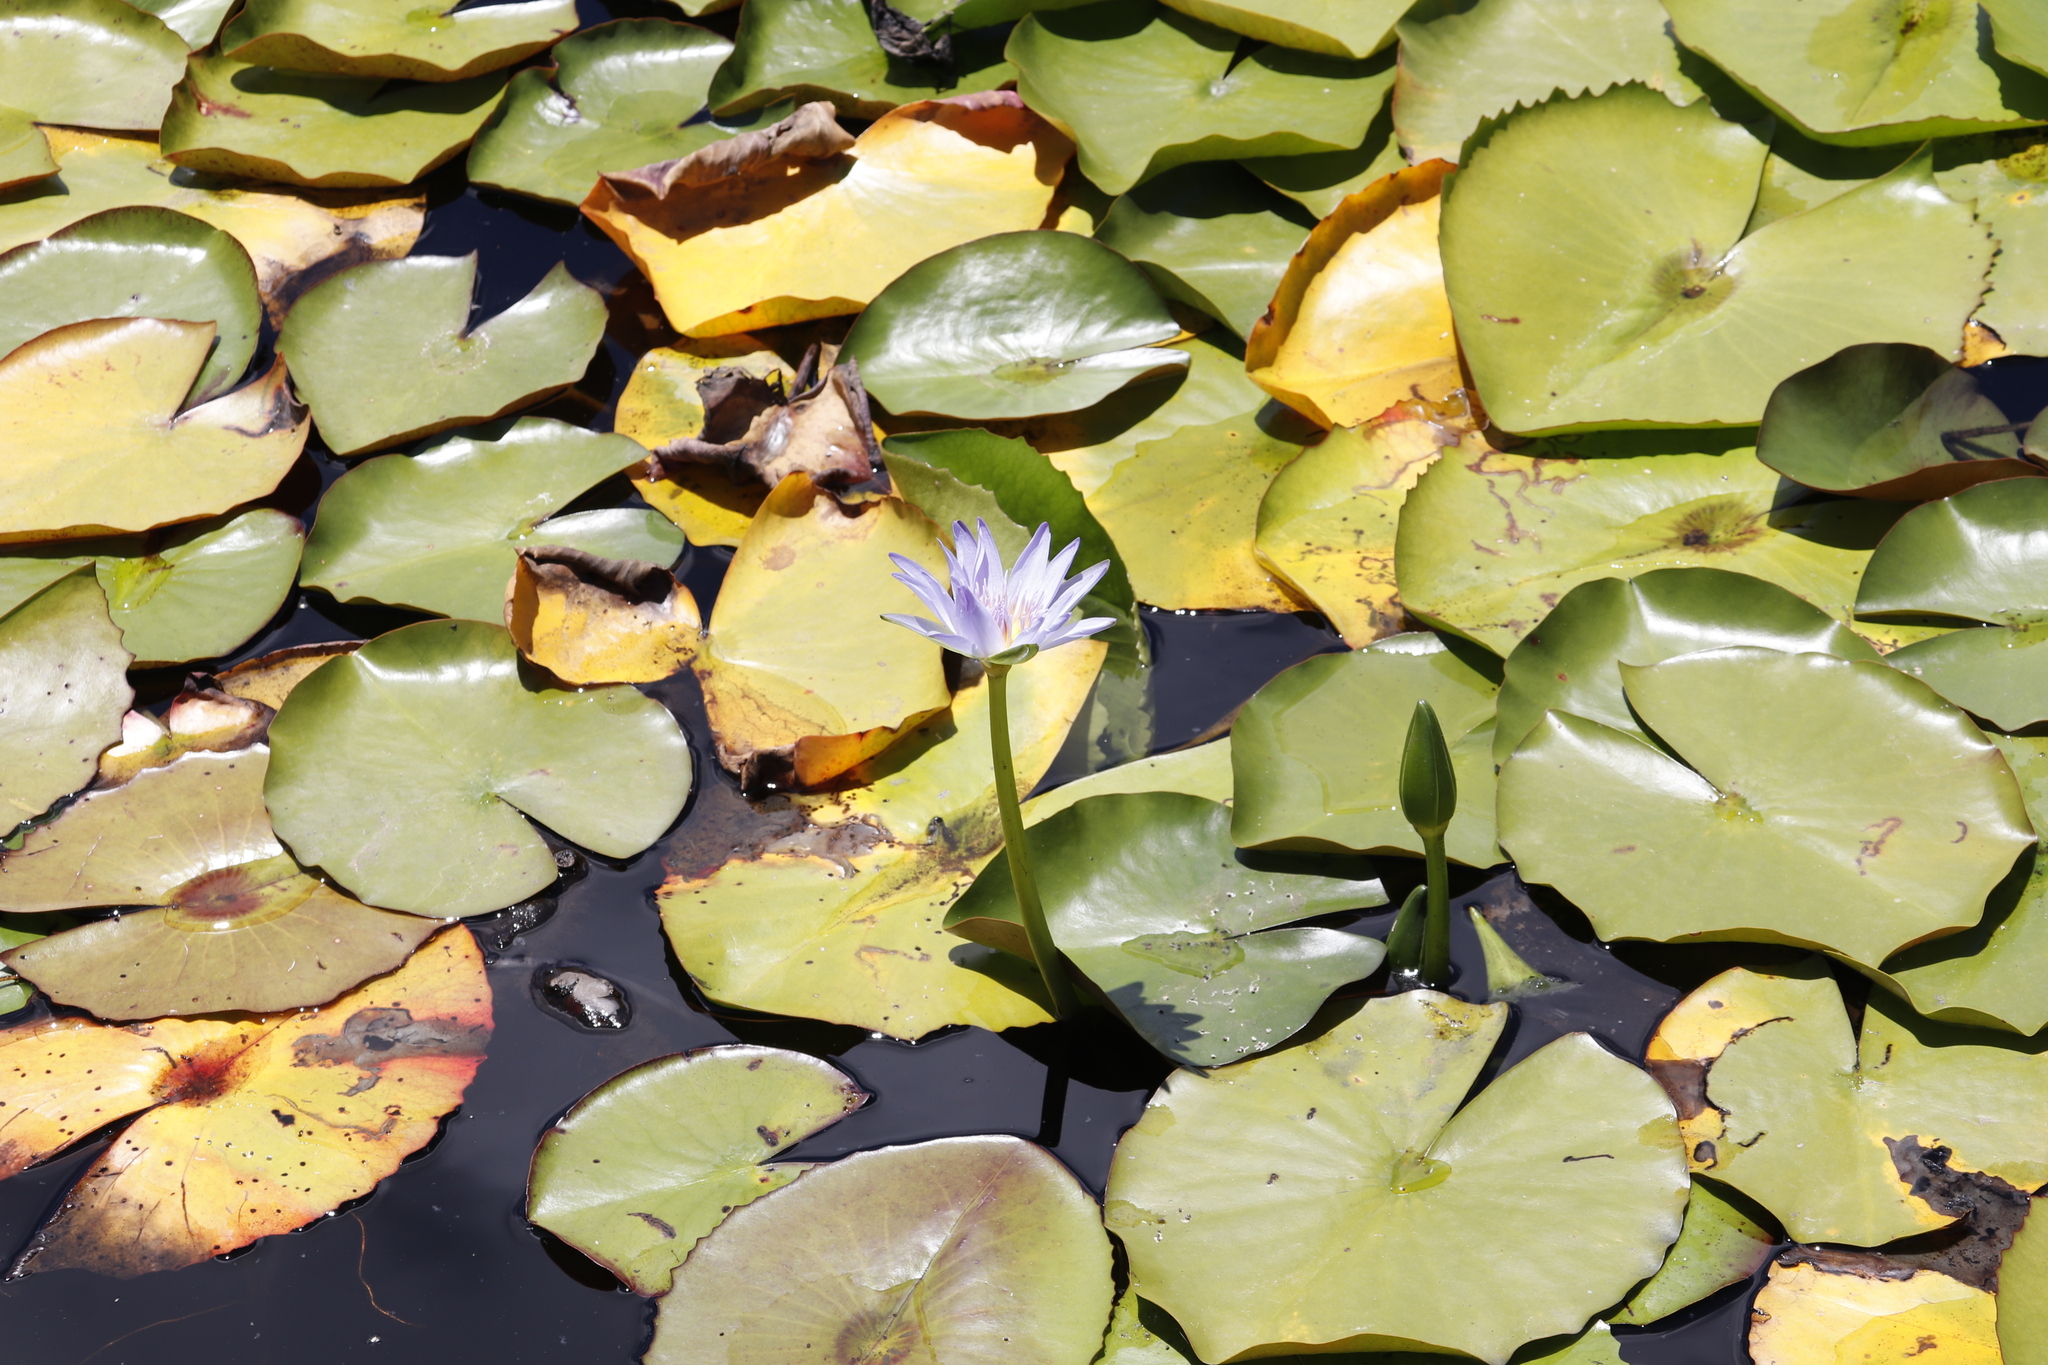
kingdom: Plantae
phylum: Tracheophyta
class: Magnoliopsida
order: Nymphaeales
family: Nymphaeaceae
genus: Nymphaea
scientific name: Nymphaea nouchali
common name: Blue lotus
